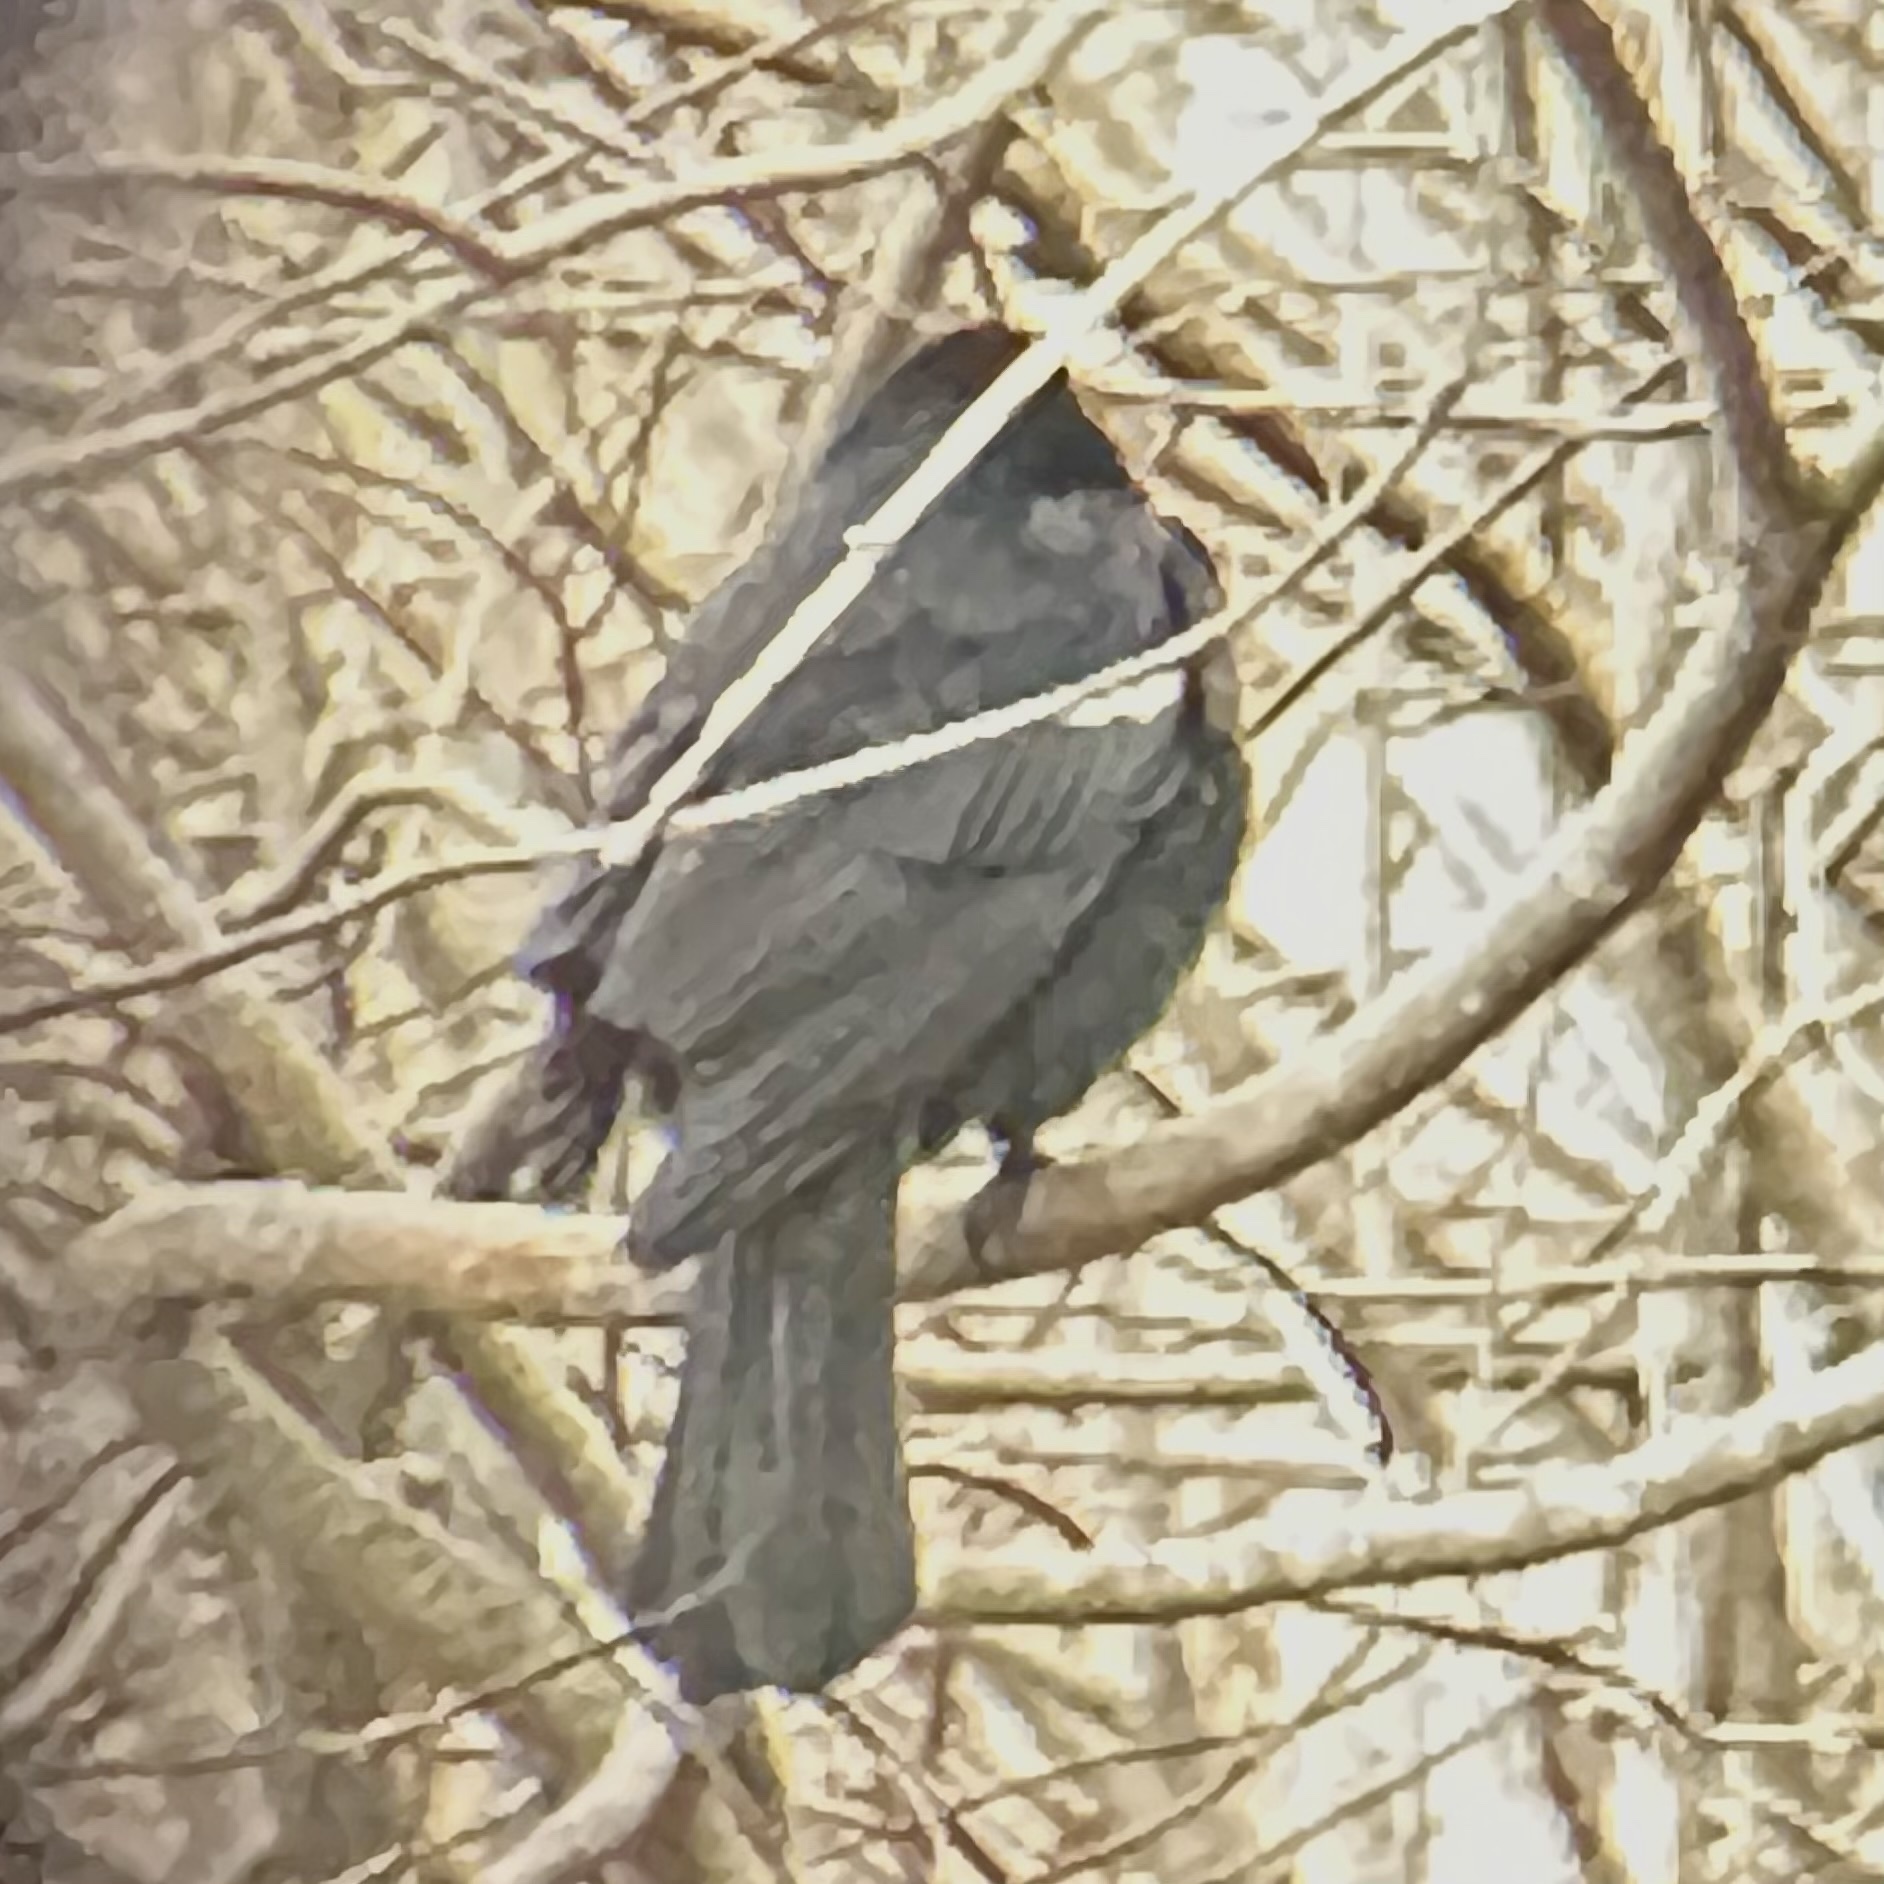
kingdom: Animalia
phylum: Chordata
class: Aves
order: Passeriformes
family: Icteridae
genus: Agelaius
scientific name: Agelaius phoeniceus
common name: Red-winged blackbird
